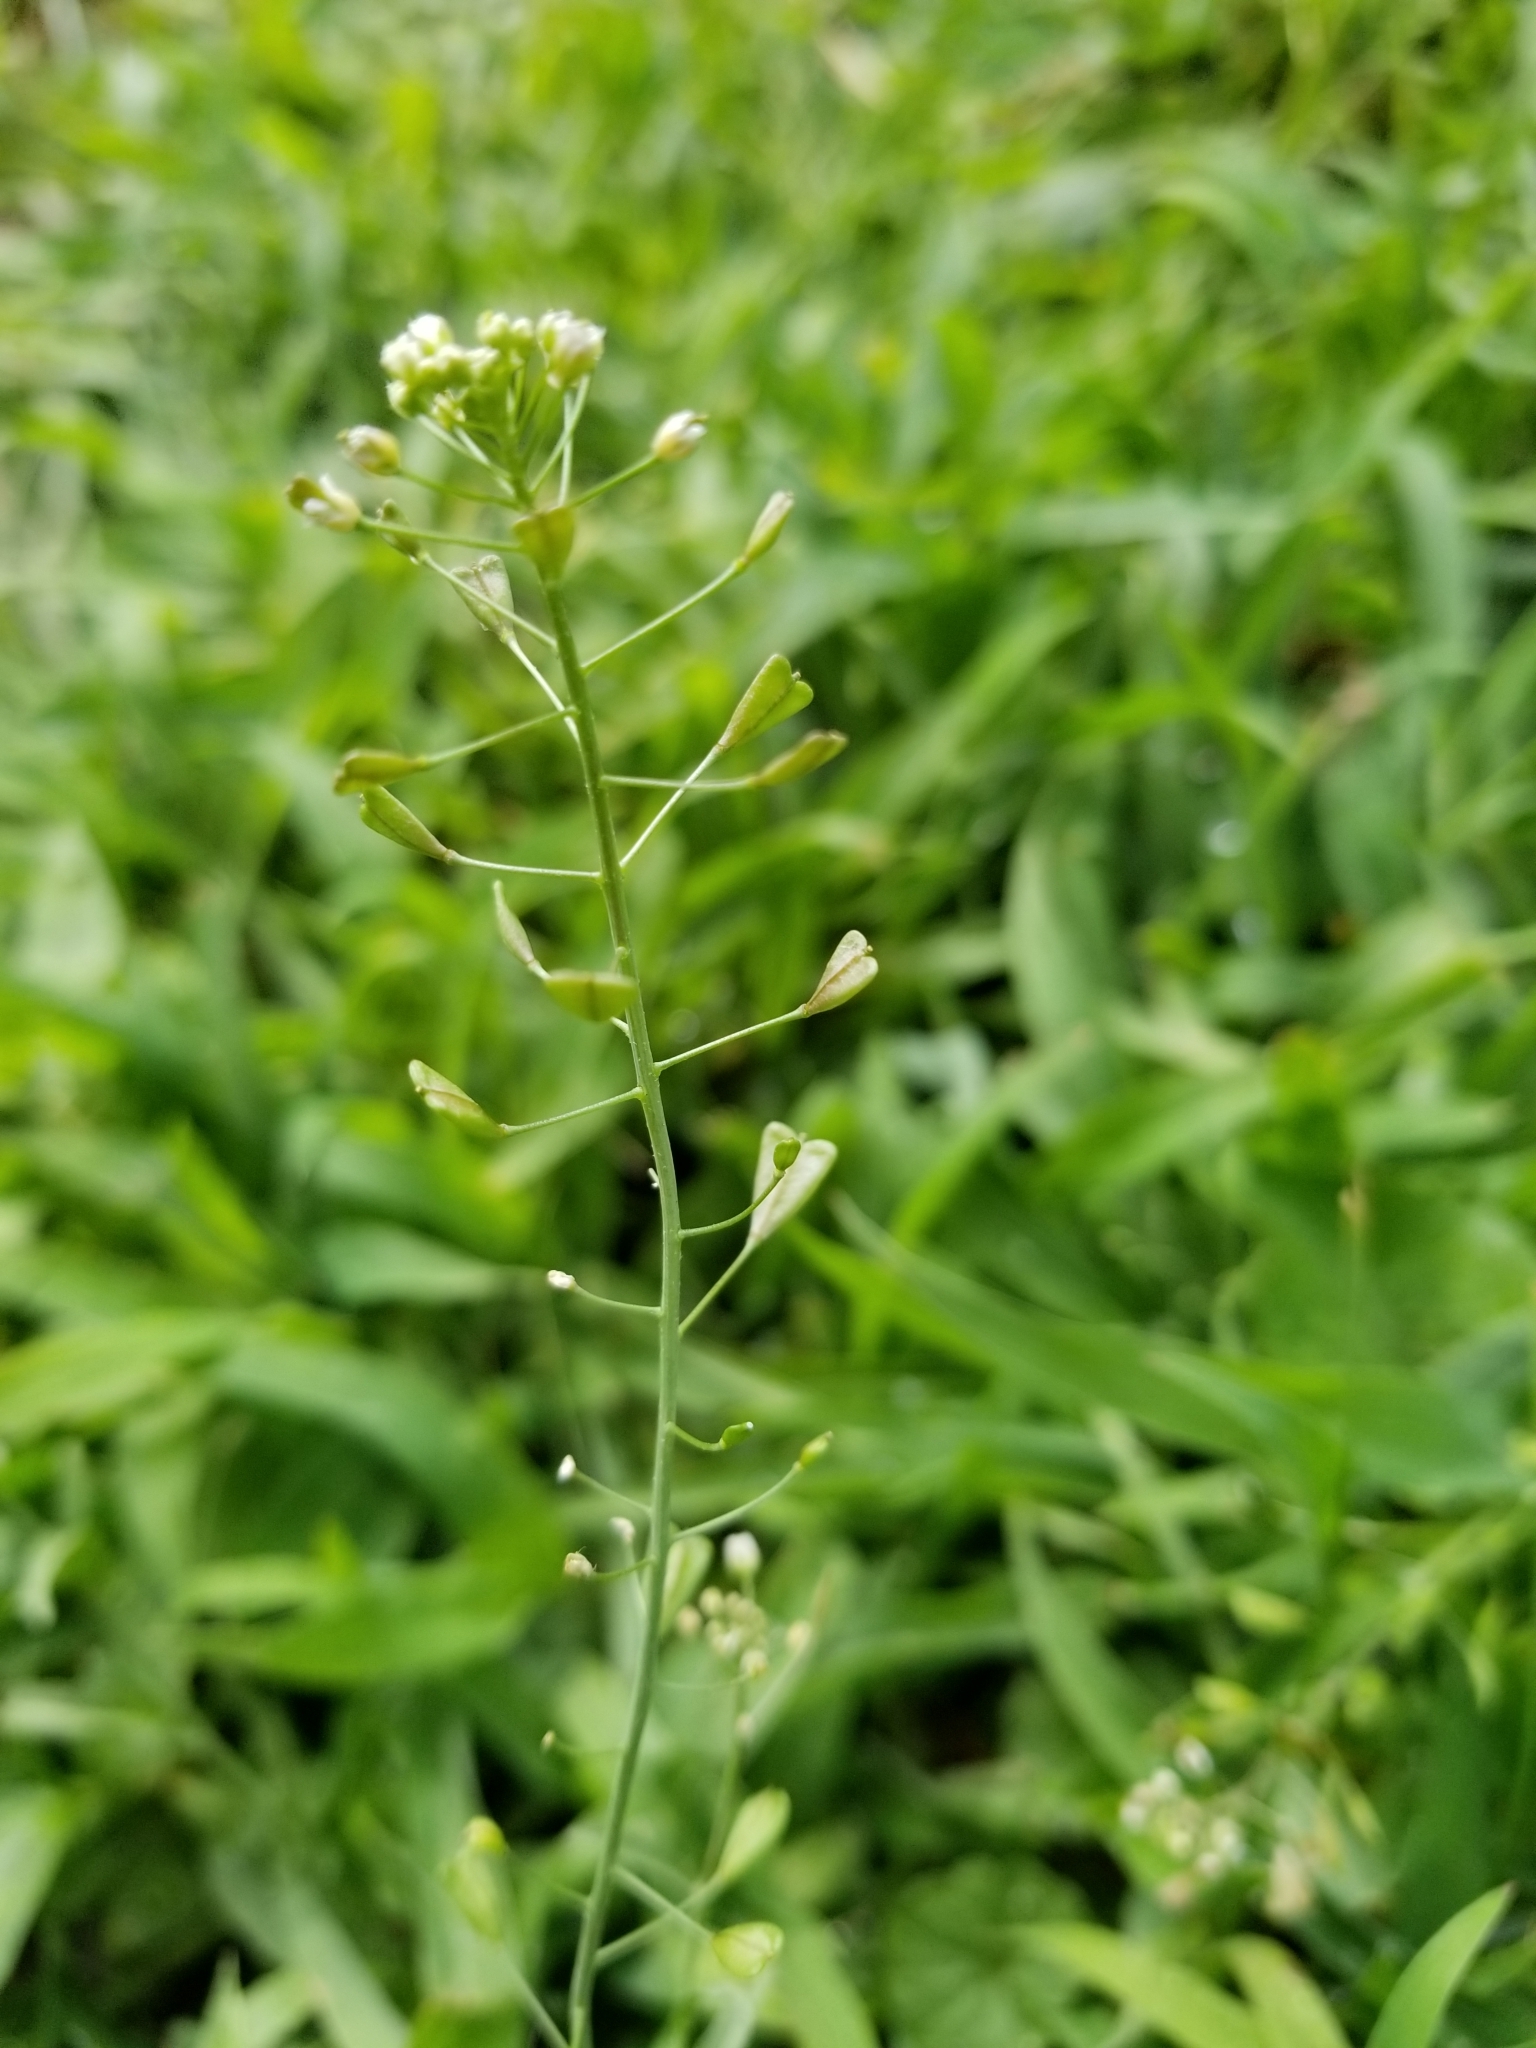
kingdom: Plantae
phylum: Tracheophyta
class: Magnoliopsida
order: Brassicales
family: Brassicaceae
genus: Capsella
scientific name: Capsella bursa-pastoris
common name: Shepherd's purse
